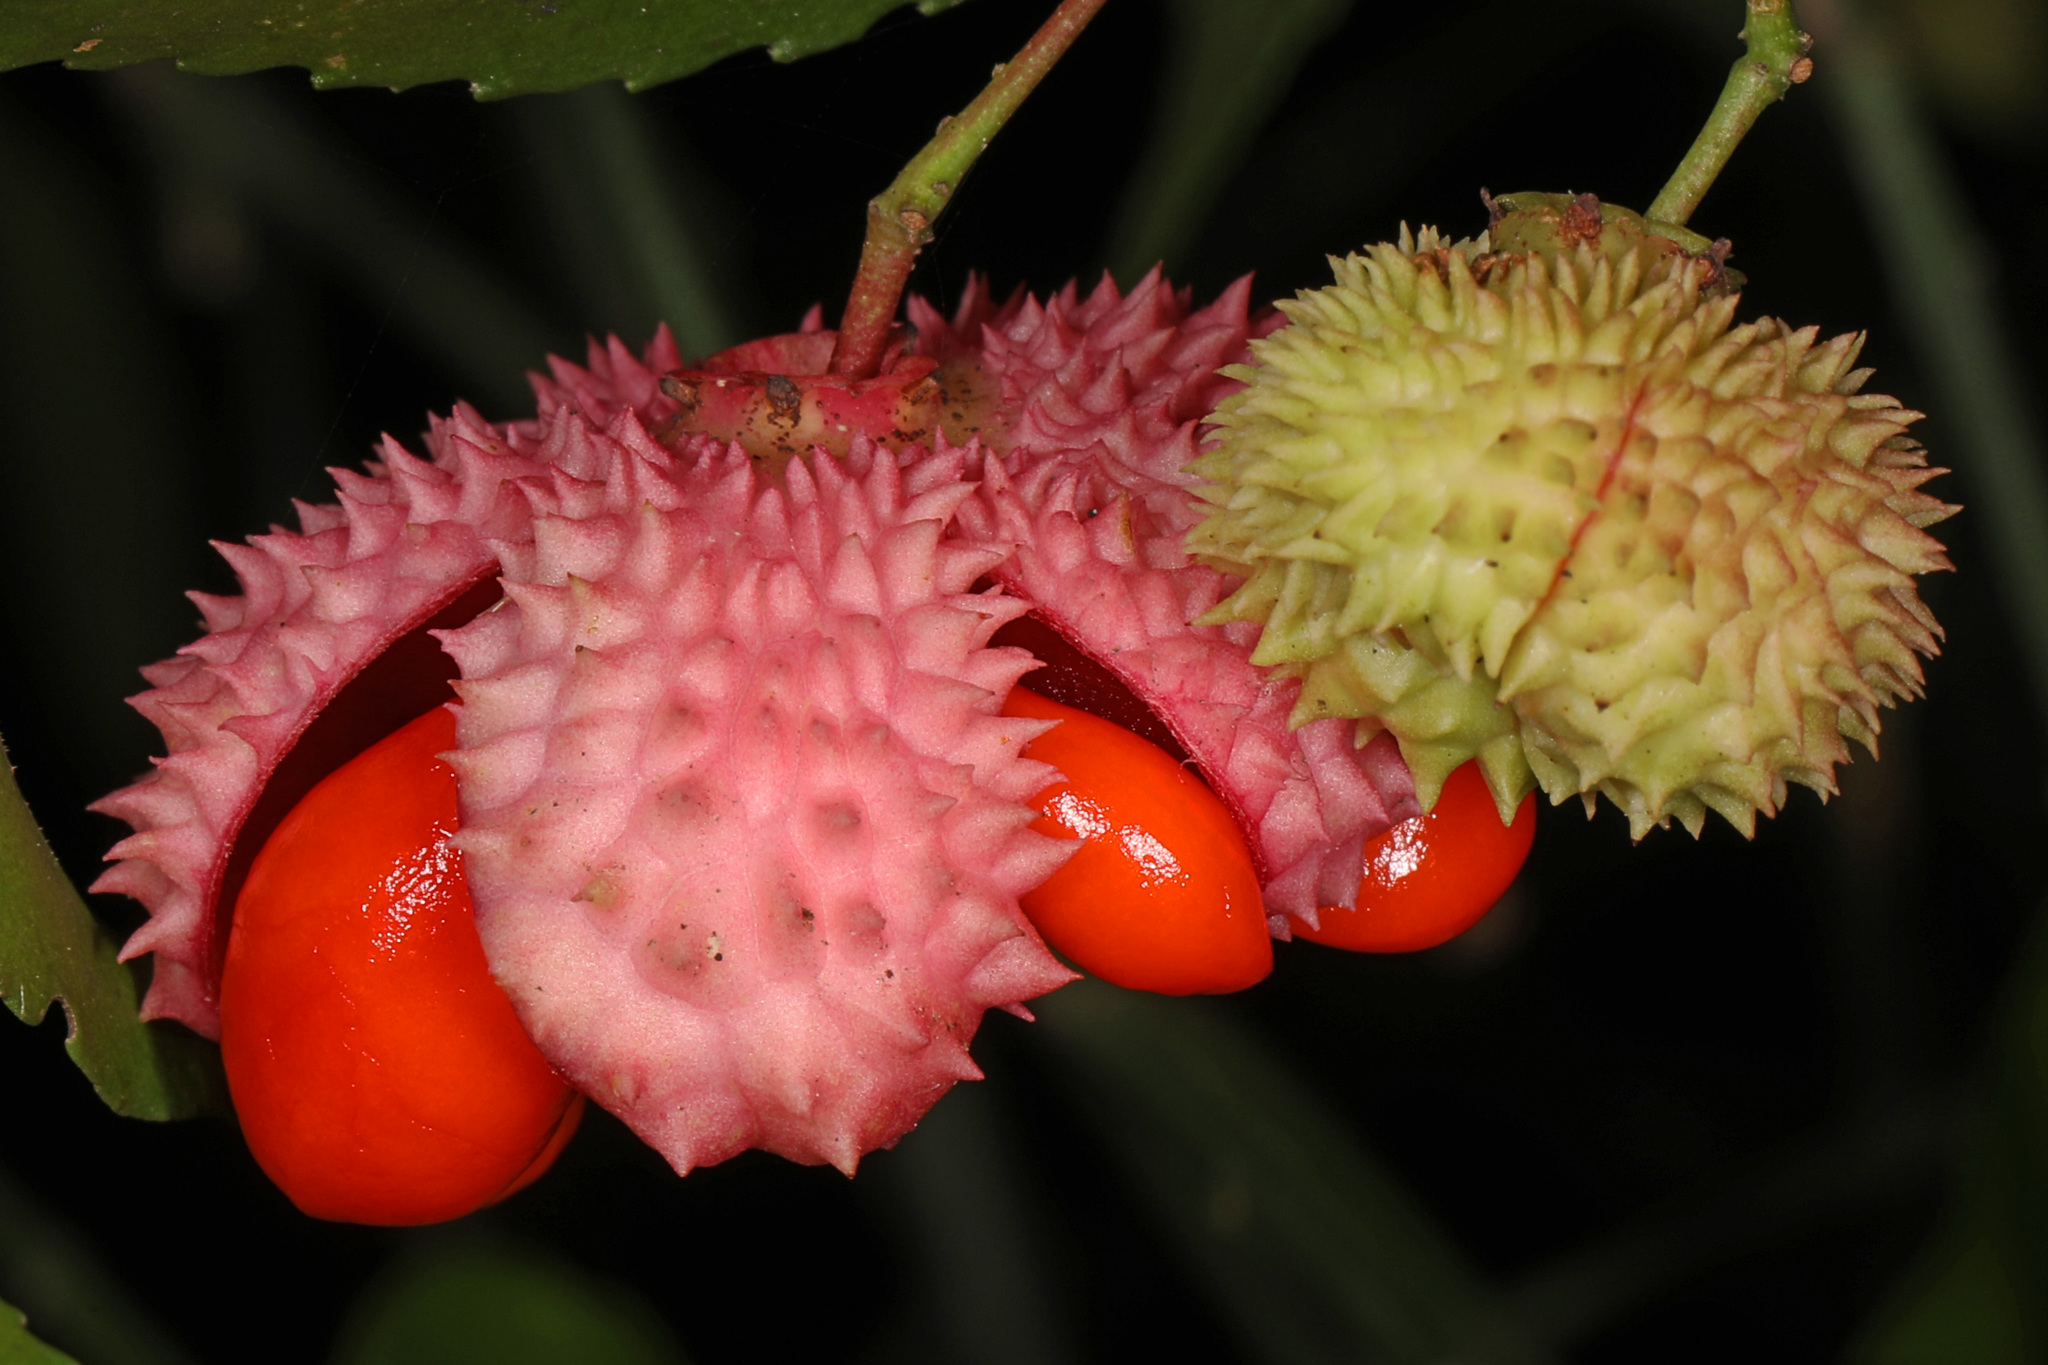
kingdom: Plantae
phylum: Tracheophyta
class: Magnoliopsida
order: Celastrales
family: Celastraceae
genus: Euonymus
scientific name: Euonymus americanus
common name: Bursting-heart
